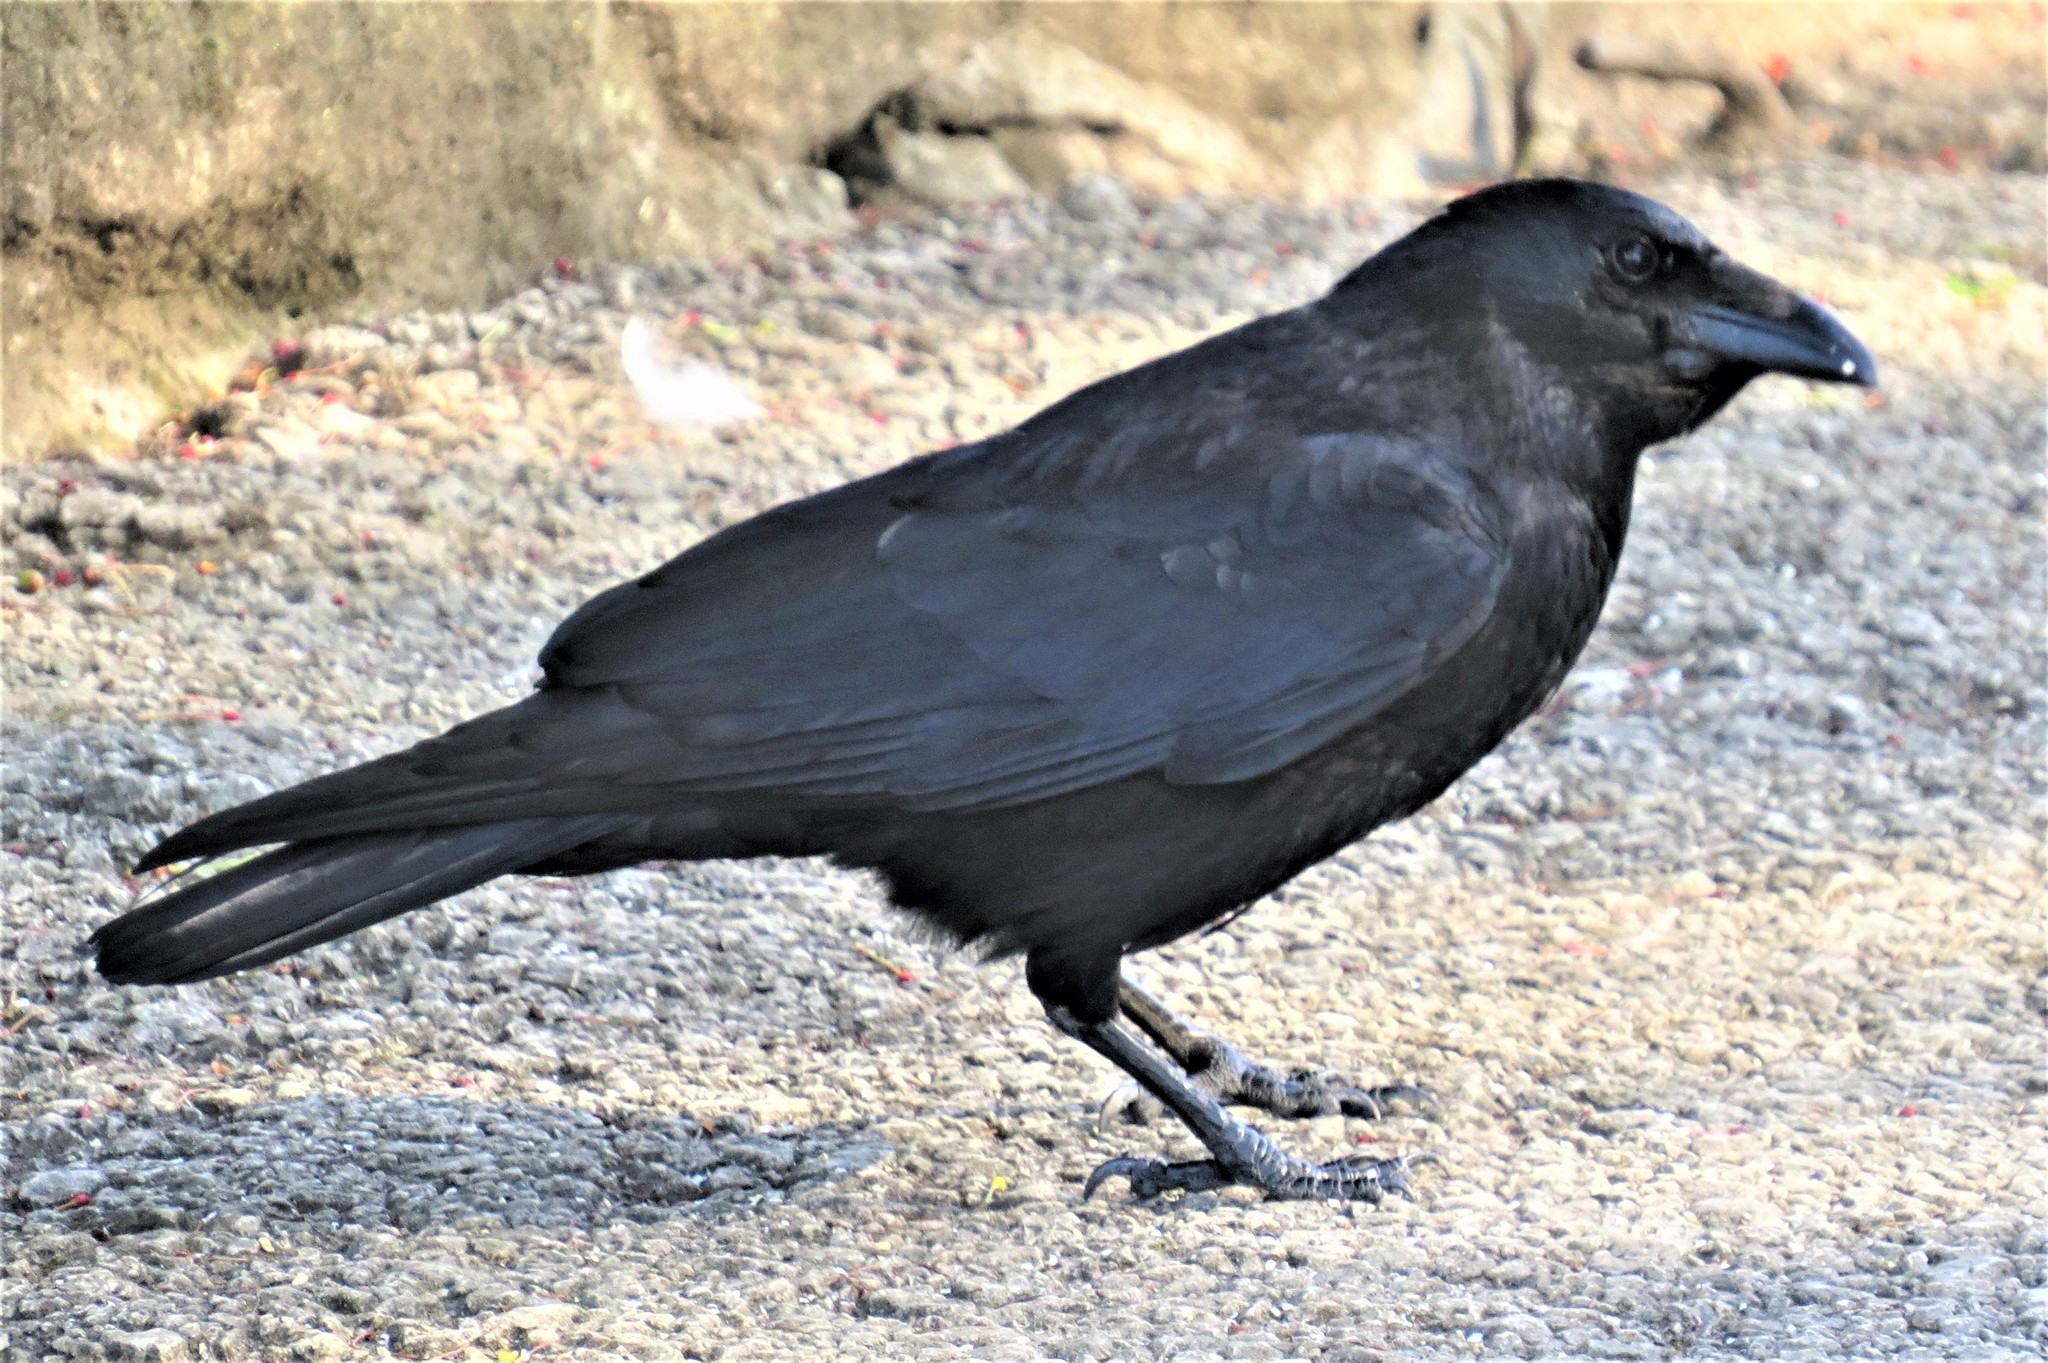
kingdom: Animalia
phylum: Chordata
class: Aves
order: Passeriformes
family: Corvidae
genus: Corvus
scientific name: Corvus corone
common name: Carrion crow
